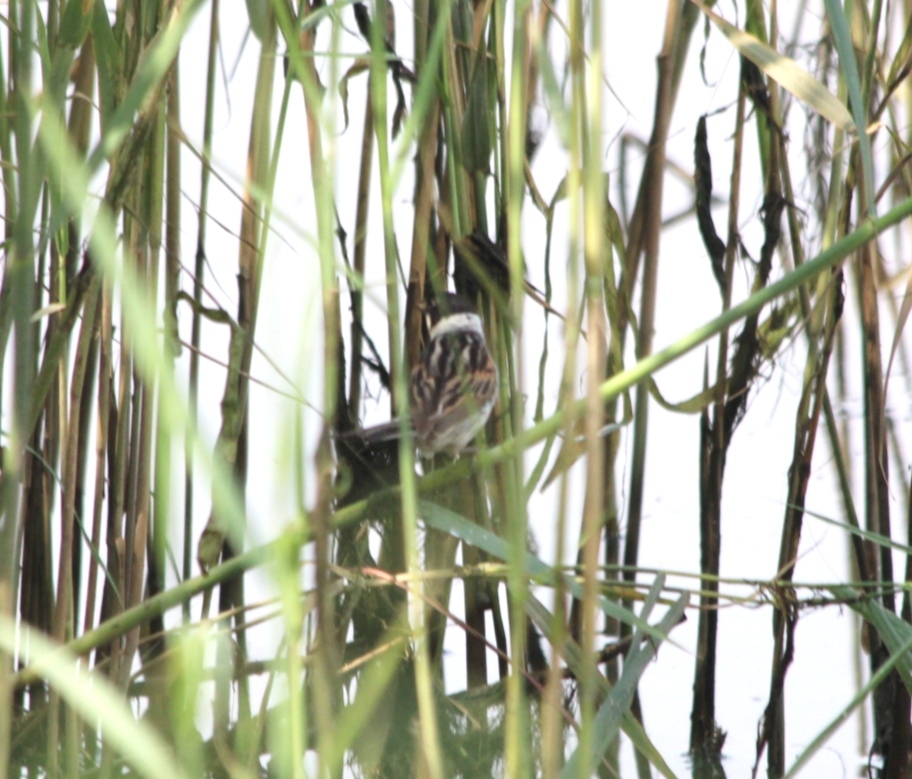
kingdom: Animalia
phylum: Chordata
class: Aves
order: Passeriformes
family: Emberizidae
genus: Emberiza
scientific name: Emberiza schoeniclus
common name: Reed bunting
